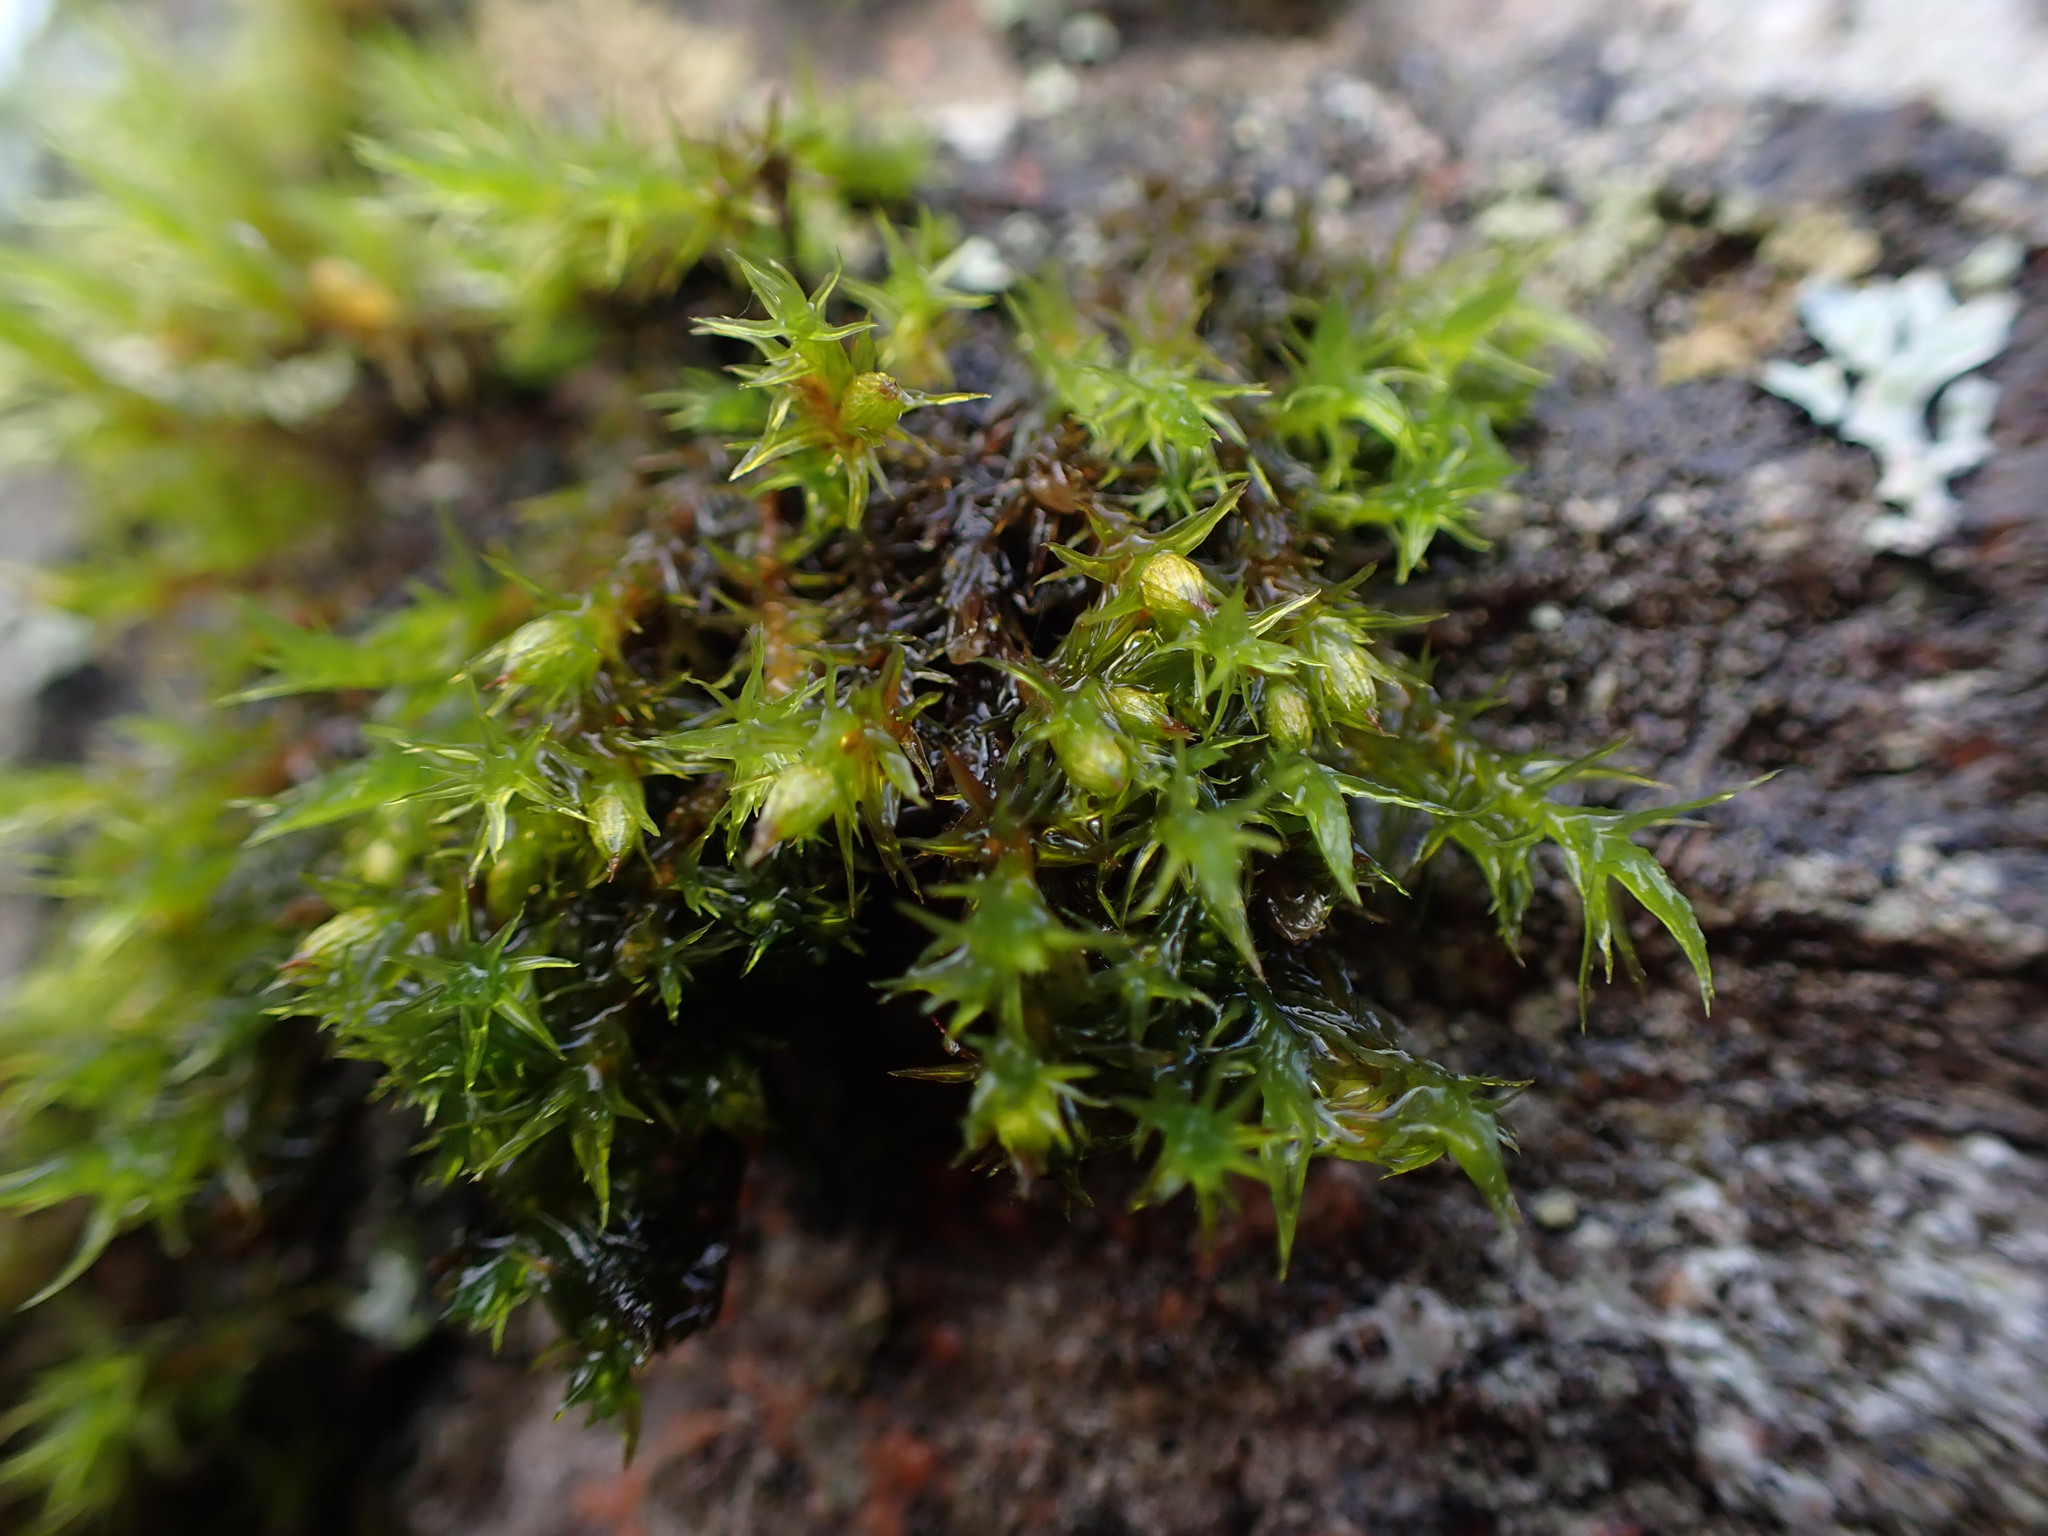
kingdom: Plantae
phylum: Bryophyta
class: Bryopsida
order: Orthotrichales
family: Orthotrichaceae
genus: Pulvigera
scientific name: Pulvigera papillosa
